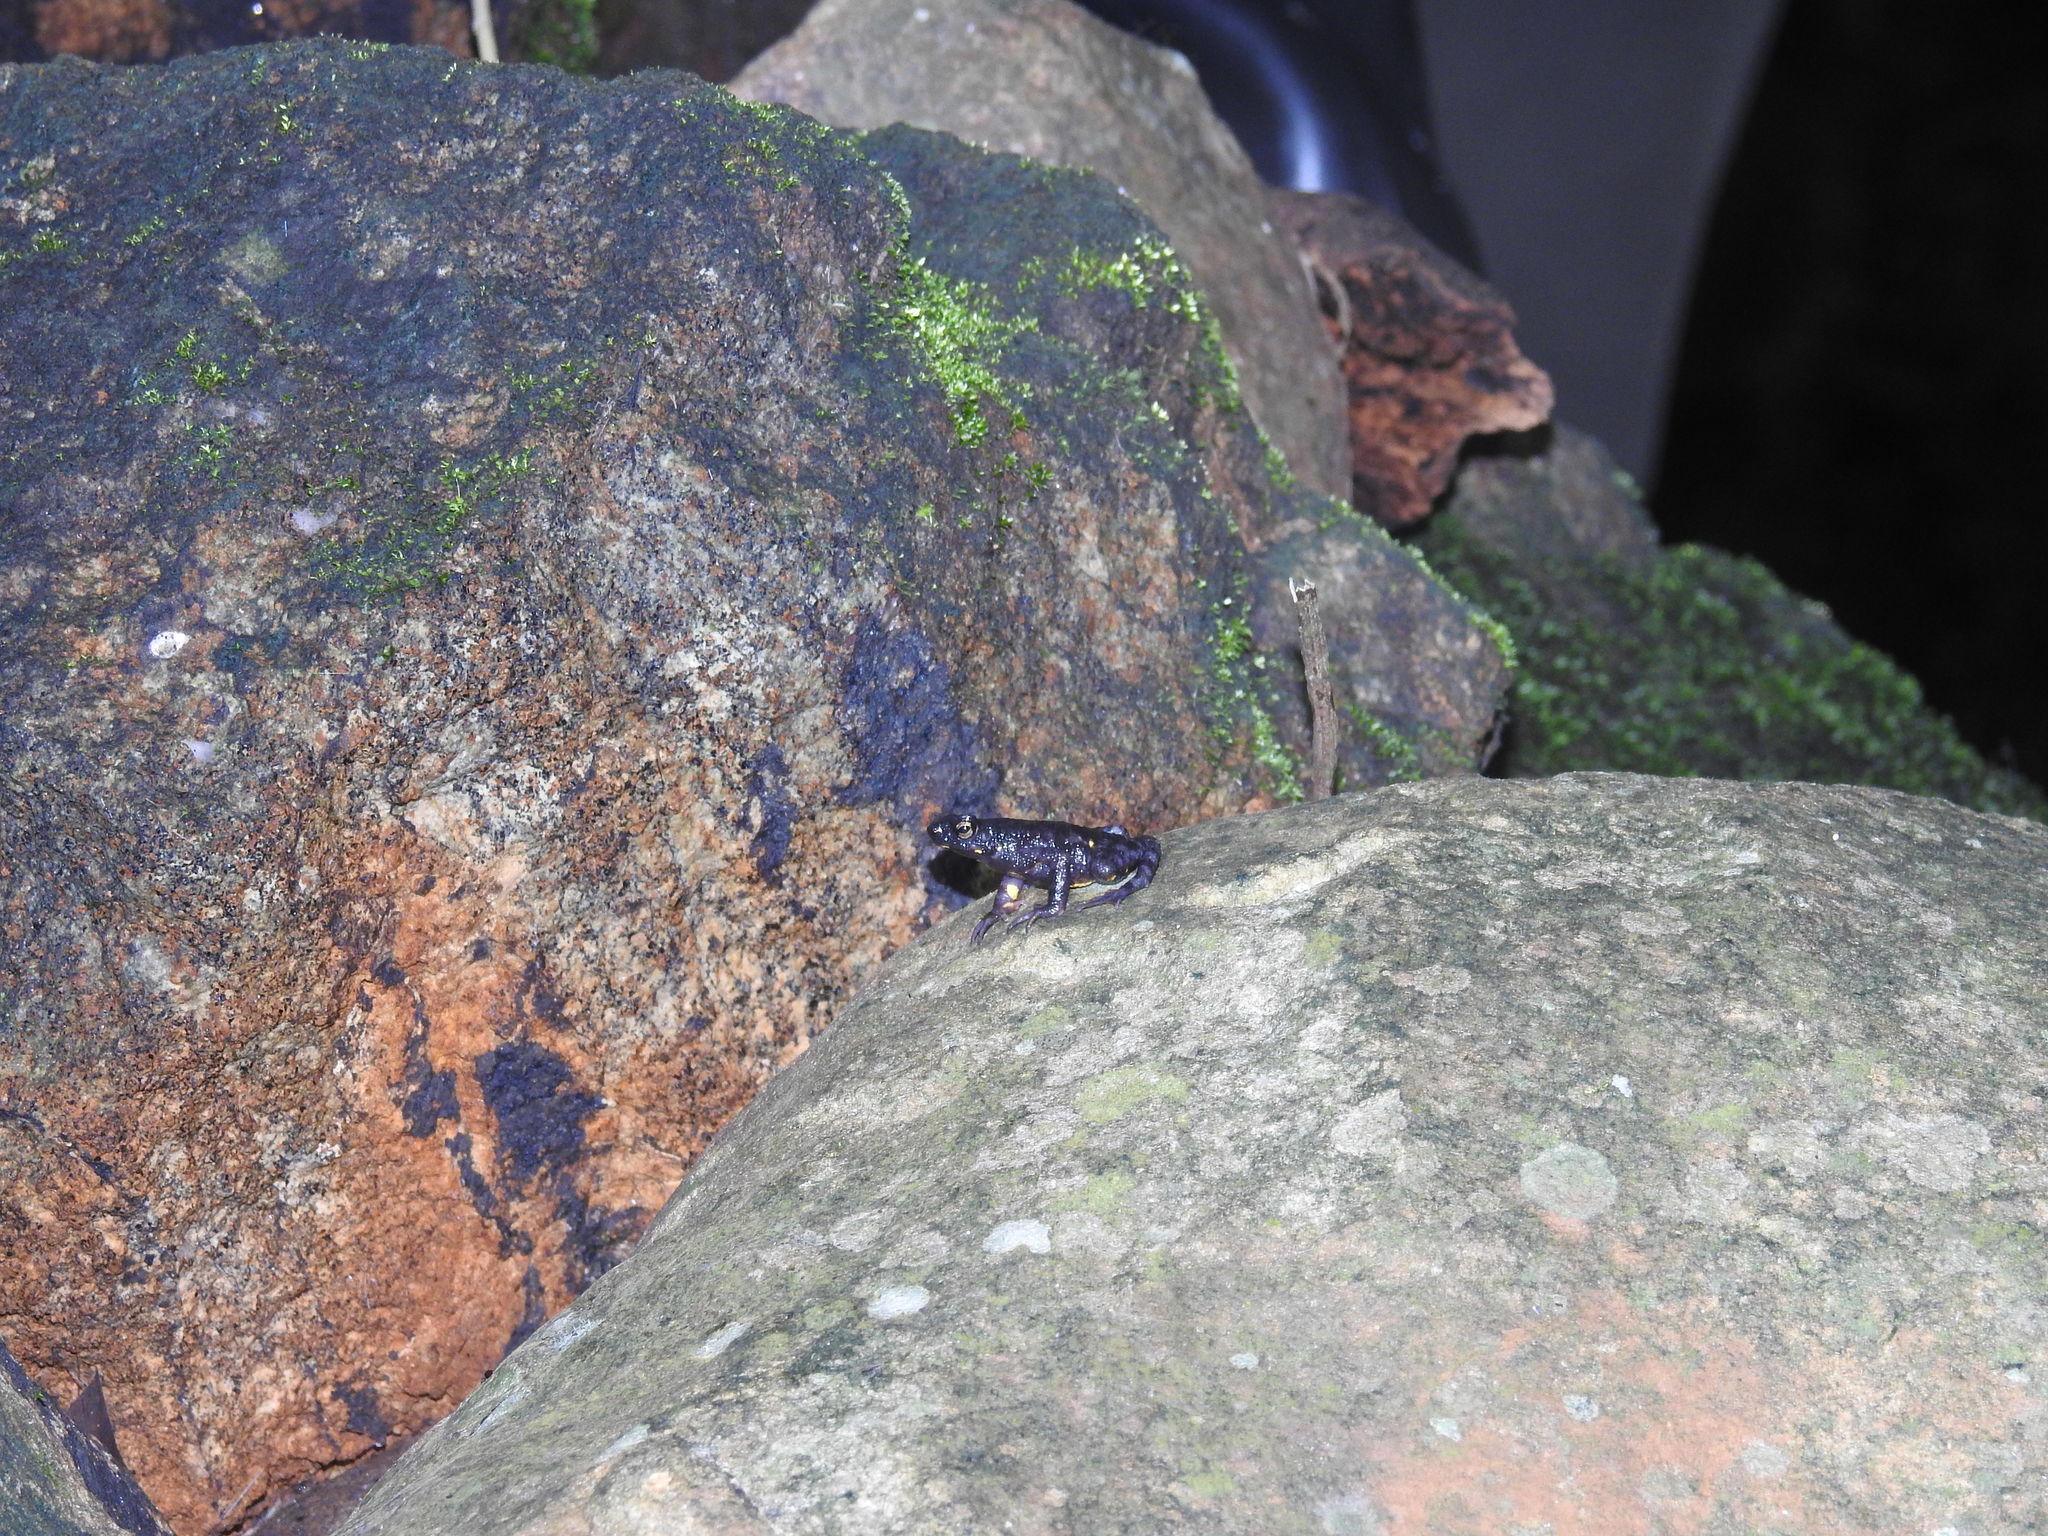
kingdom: Animalia
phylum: Chordata
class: Amphibia
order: Anura
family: Bufonidae
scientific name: Bufonidae
